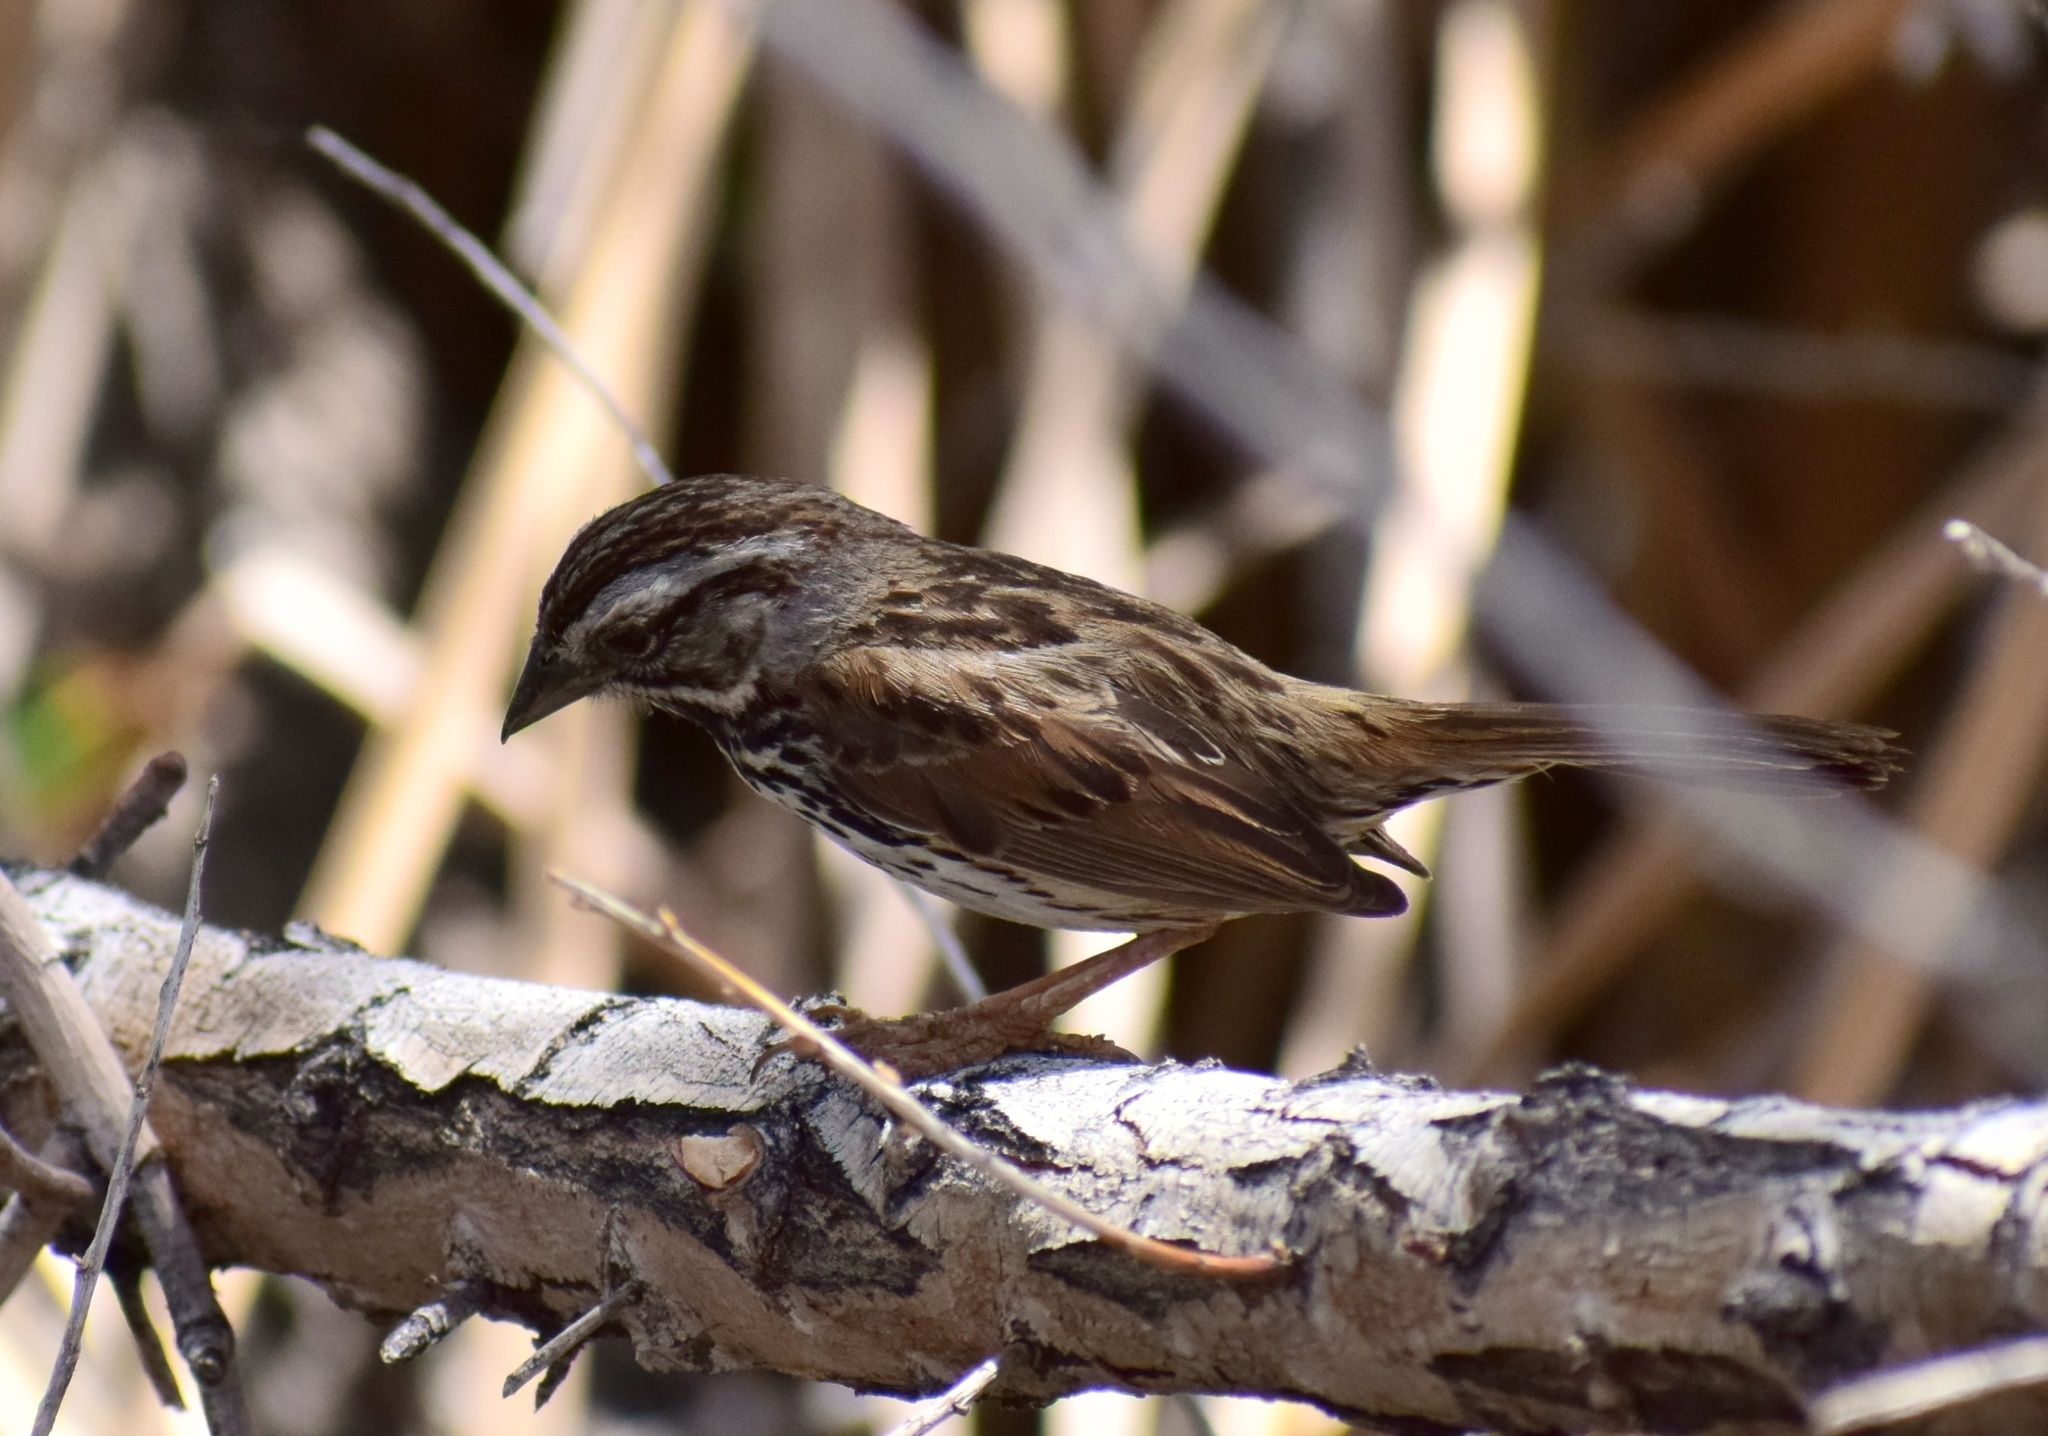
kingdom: Animalia
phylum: Chordata
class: Aves
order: Passeriformes
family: Passerellidae
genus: Melospiza
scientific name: Melospiza melodia
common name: Song sparrow
